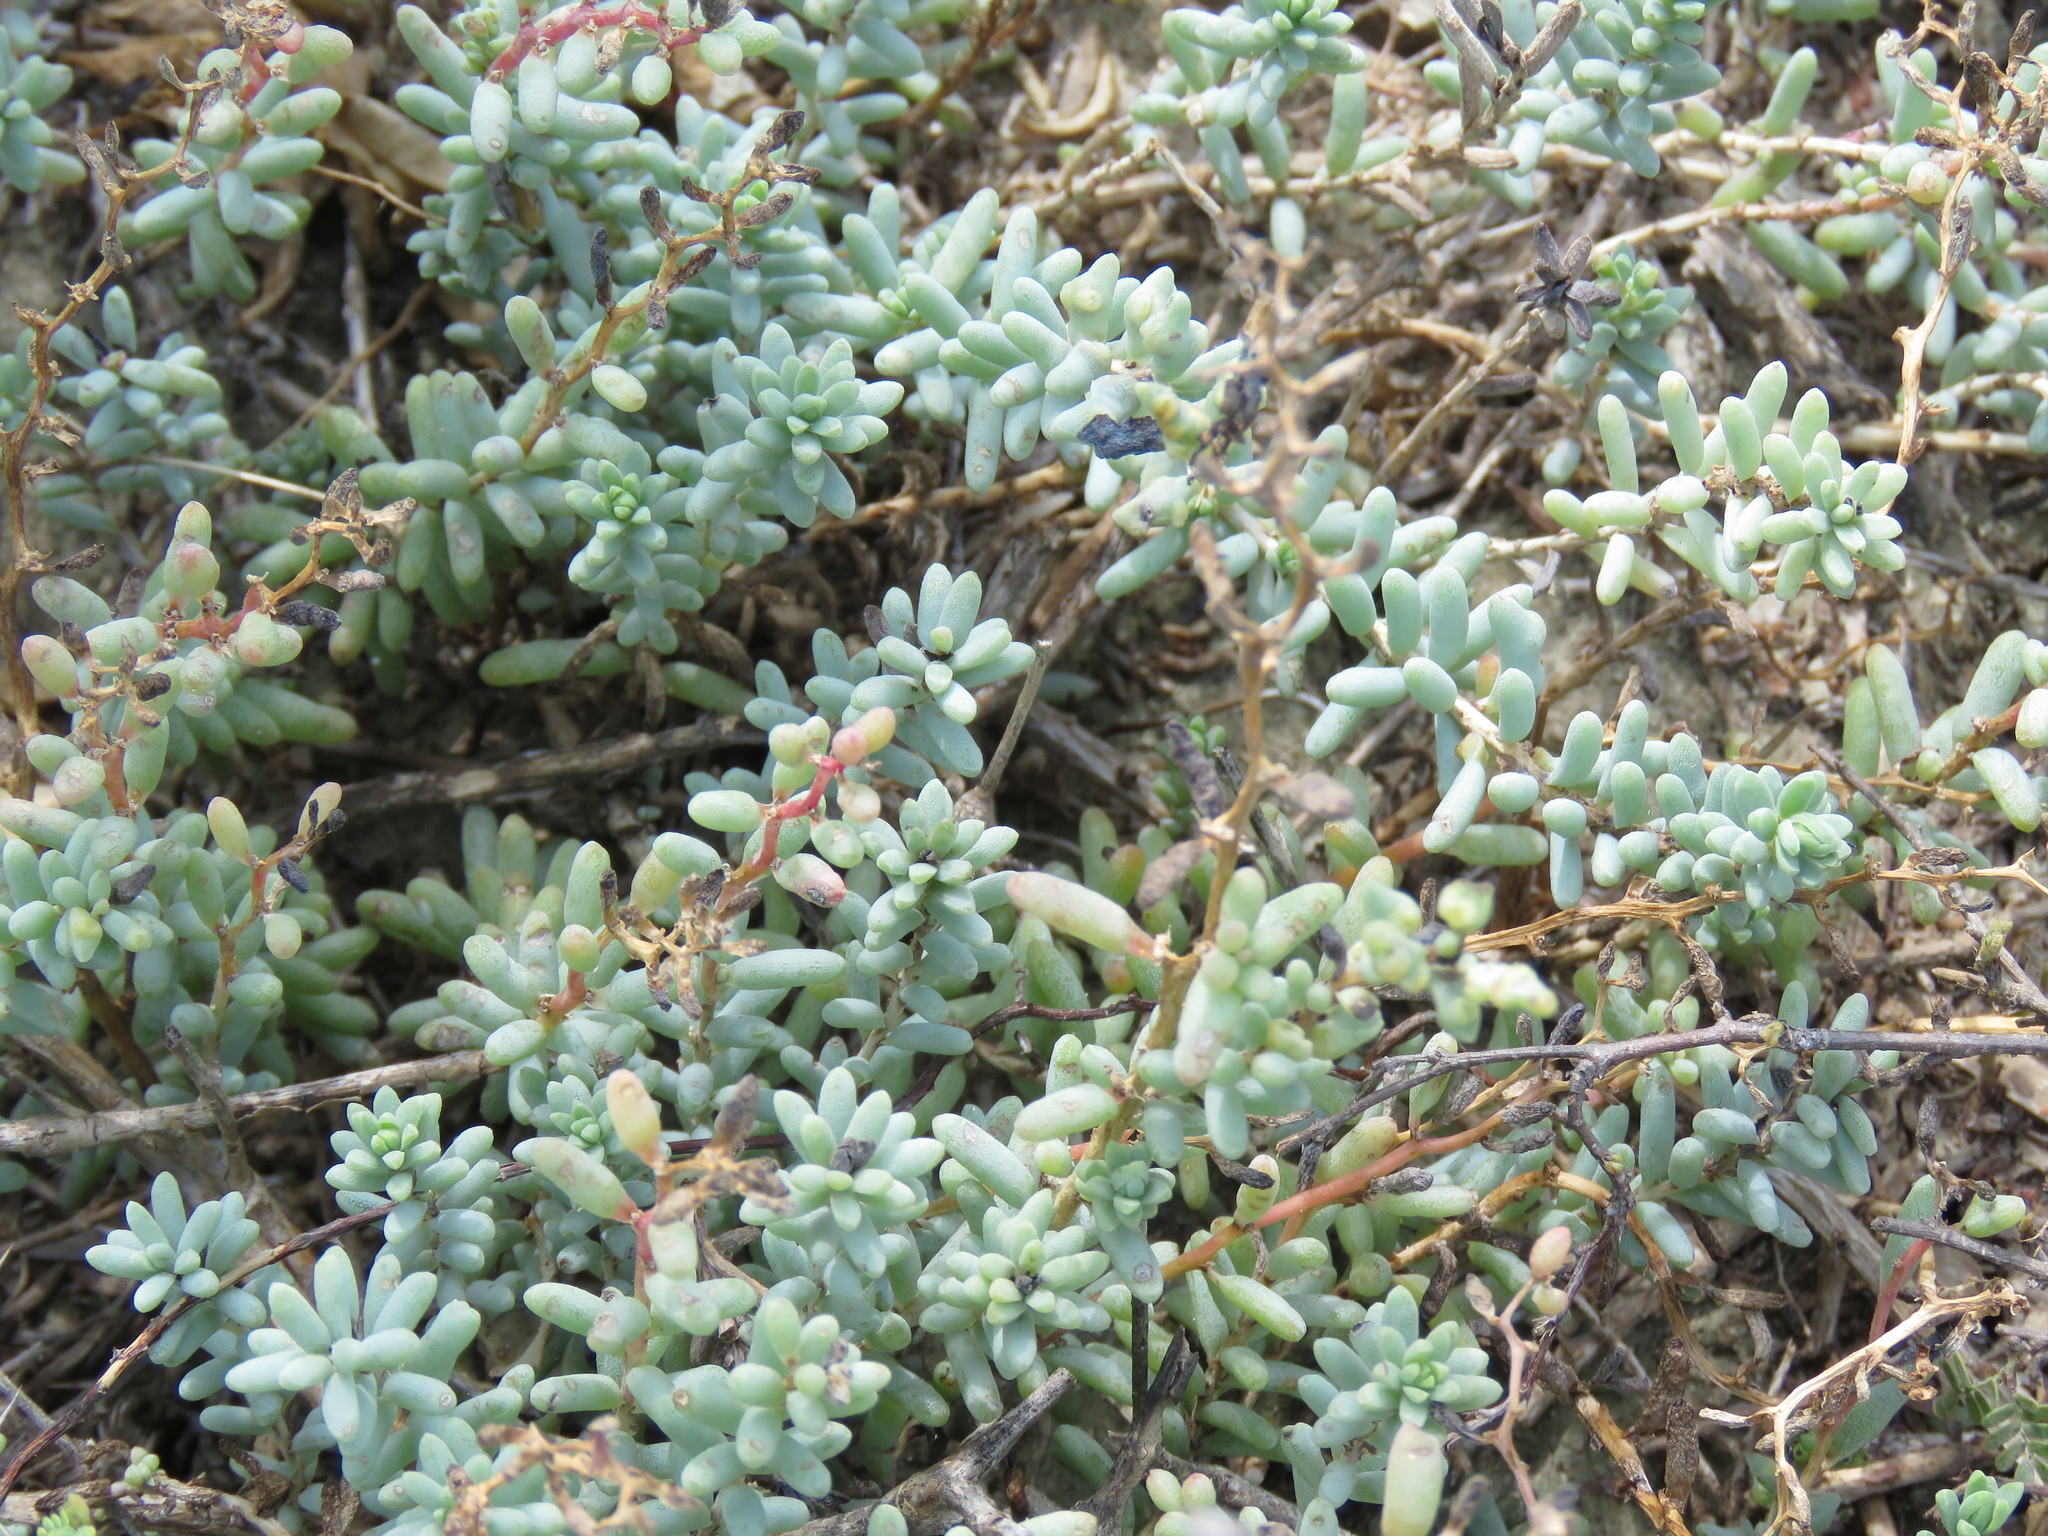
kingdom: Plantae
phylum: Tracheophyta
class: Magnoliopsida
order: Caryophyllales
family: Amaranthaceae
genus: Suaeda
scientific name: Suaeda conferta
